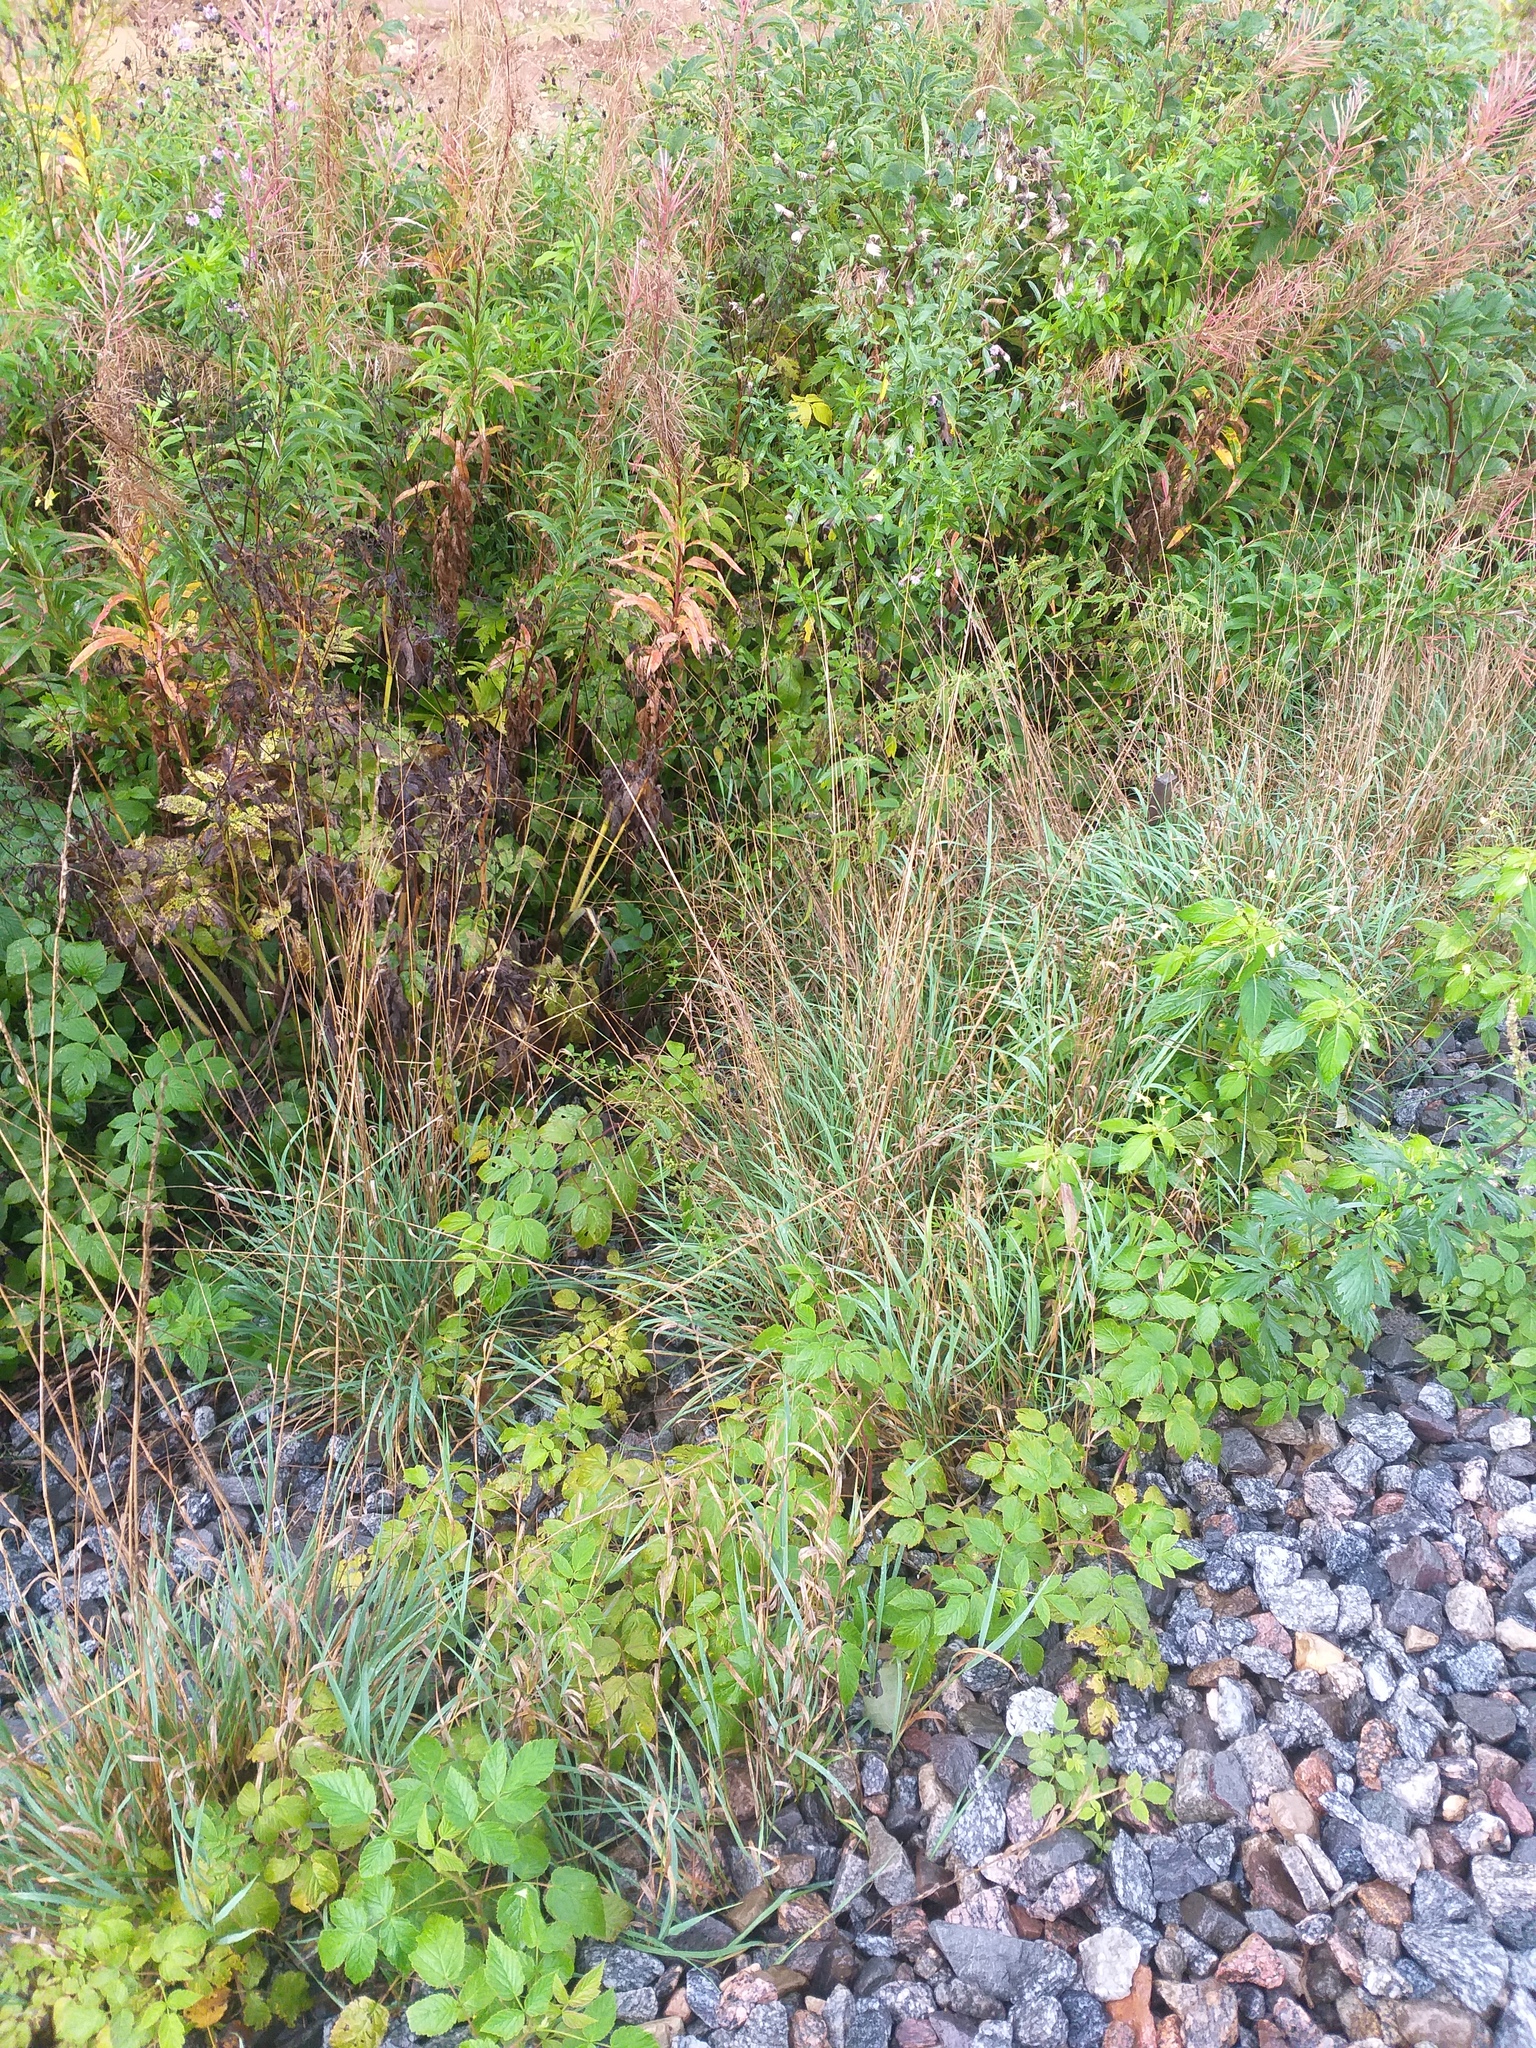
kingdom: Plantae
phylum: Tracheophyta
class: Liliopsida
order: Poales
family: Poaceae
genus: Arrhenatherum
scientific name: Arrhenatherum elatius
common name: Tall oatgrass
